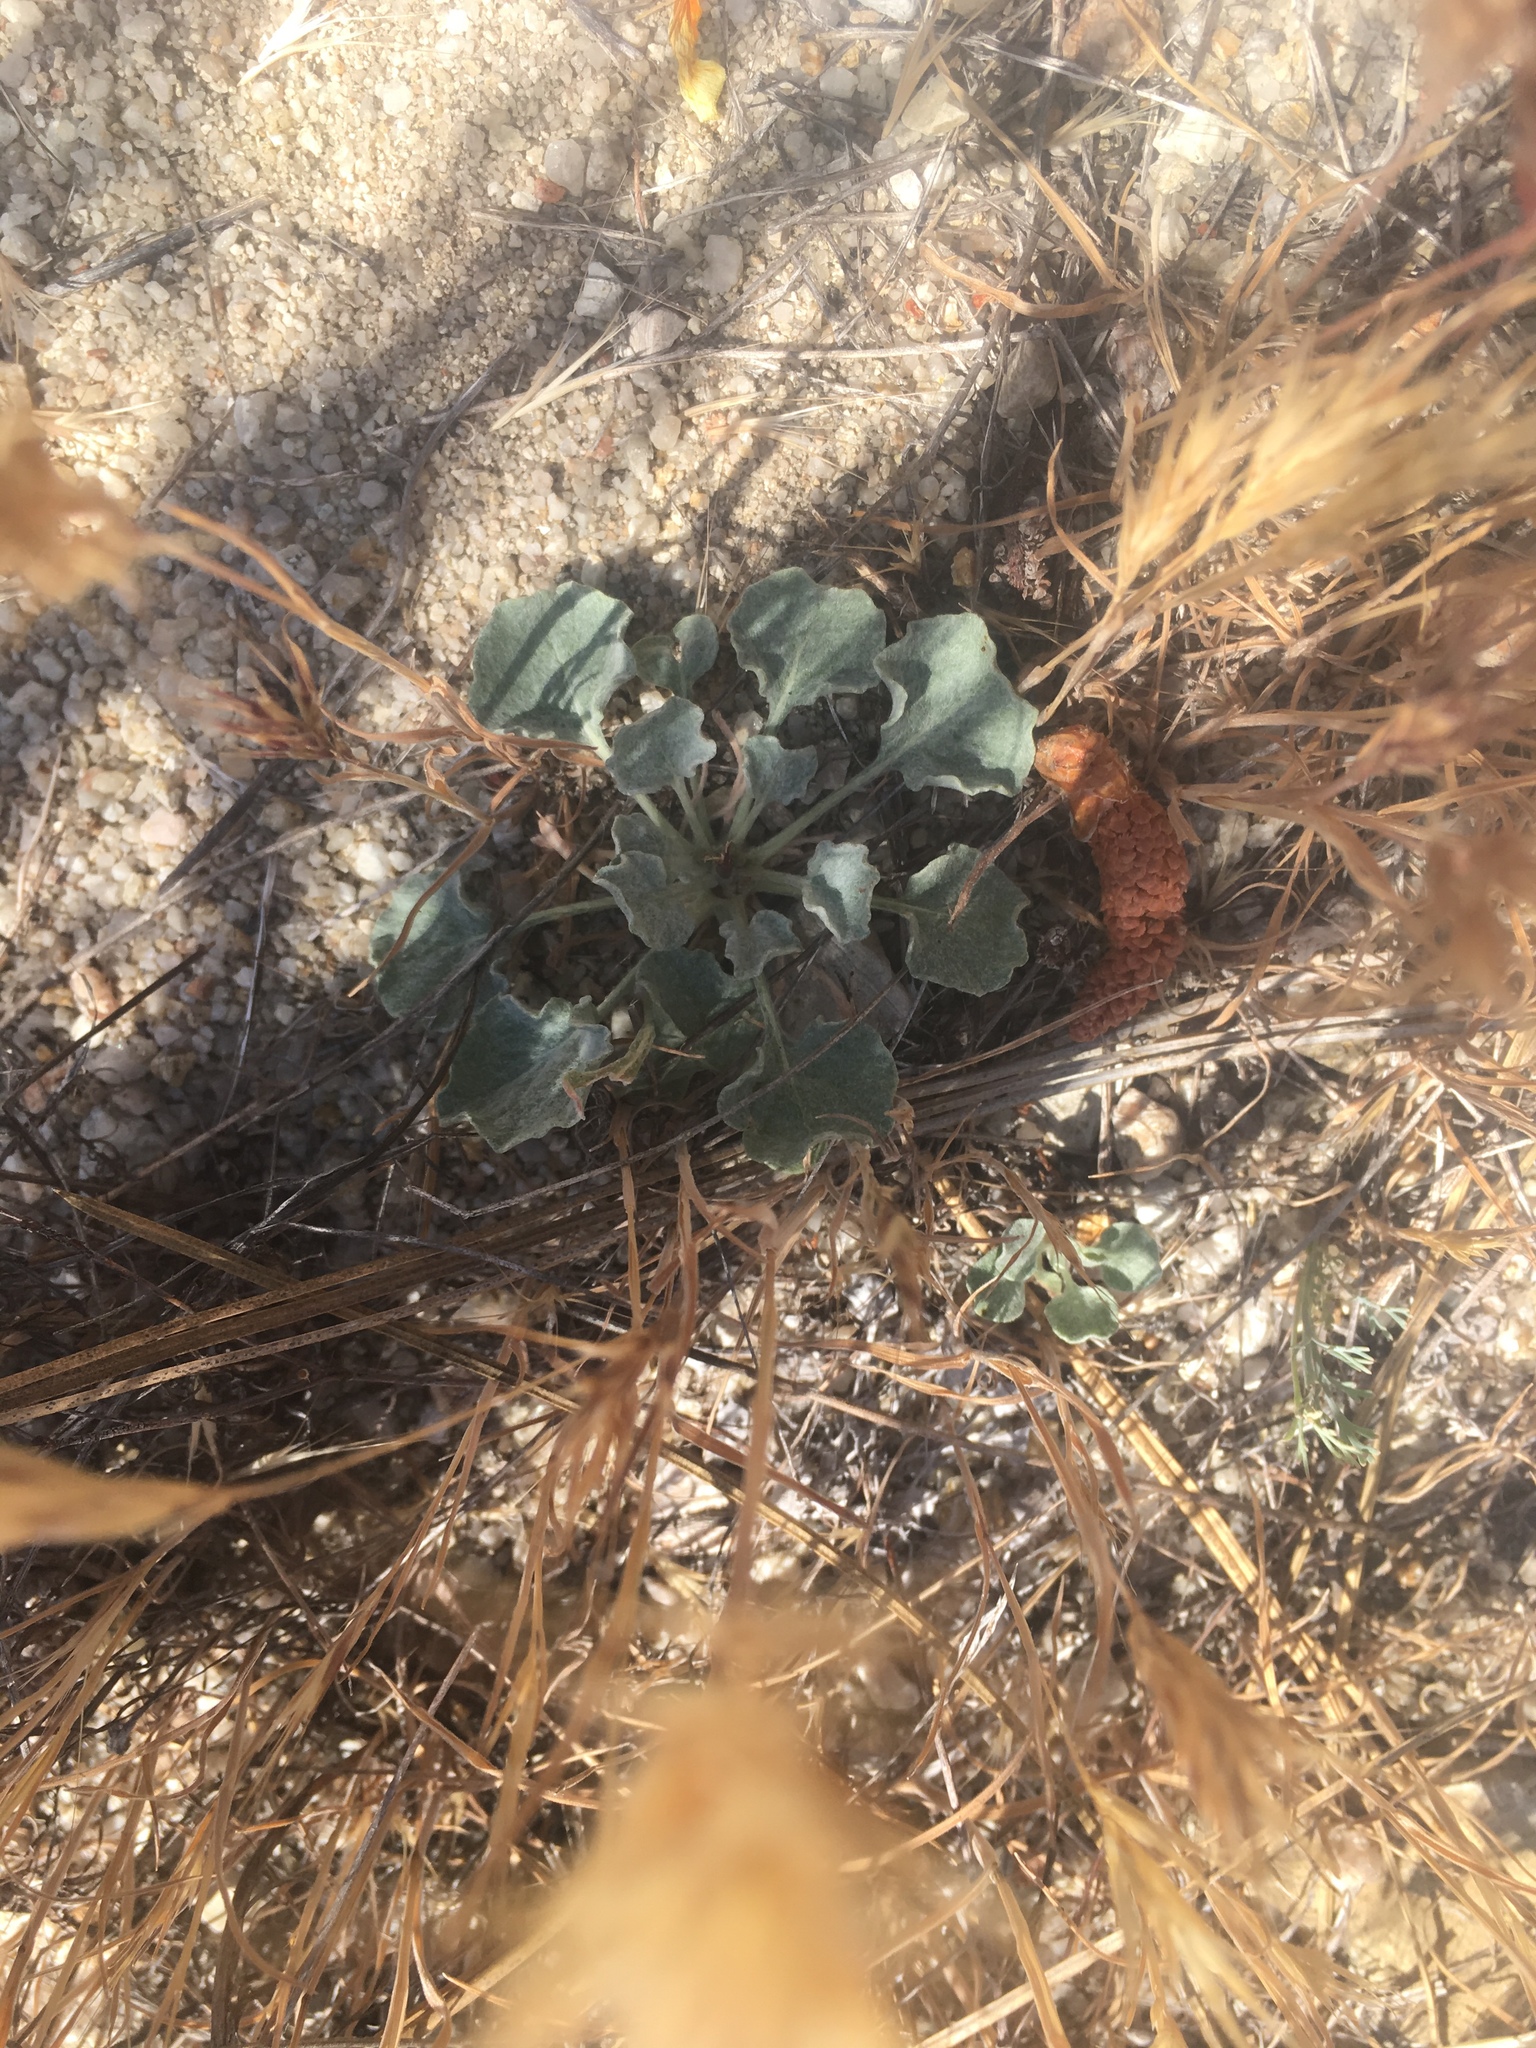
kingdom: Plantae
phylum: Tracheophyta
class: Magnoliopsida
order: Caryophyllales
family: Polygonaceae
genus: Eriogonum
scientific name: Eriogonum elegans
